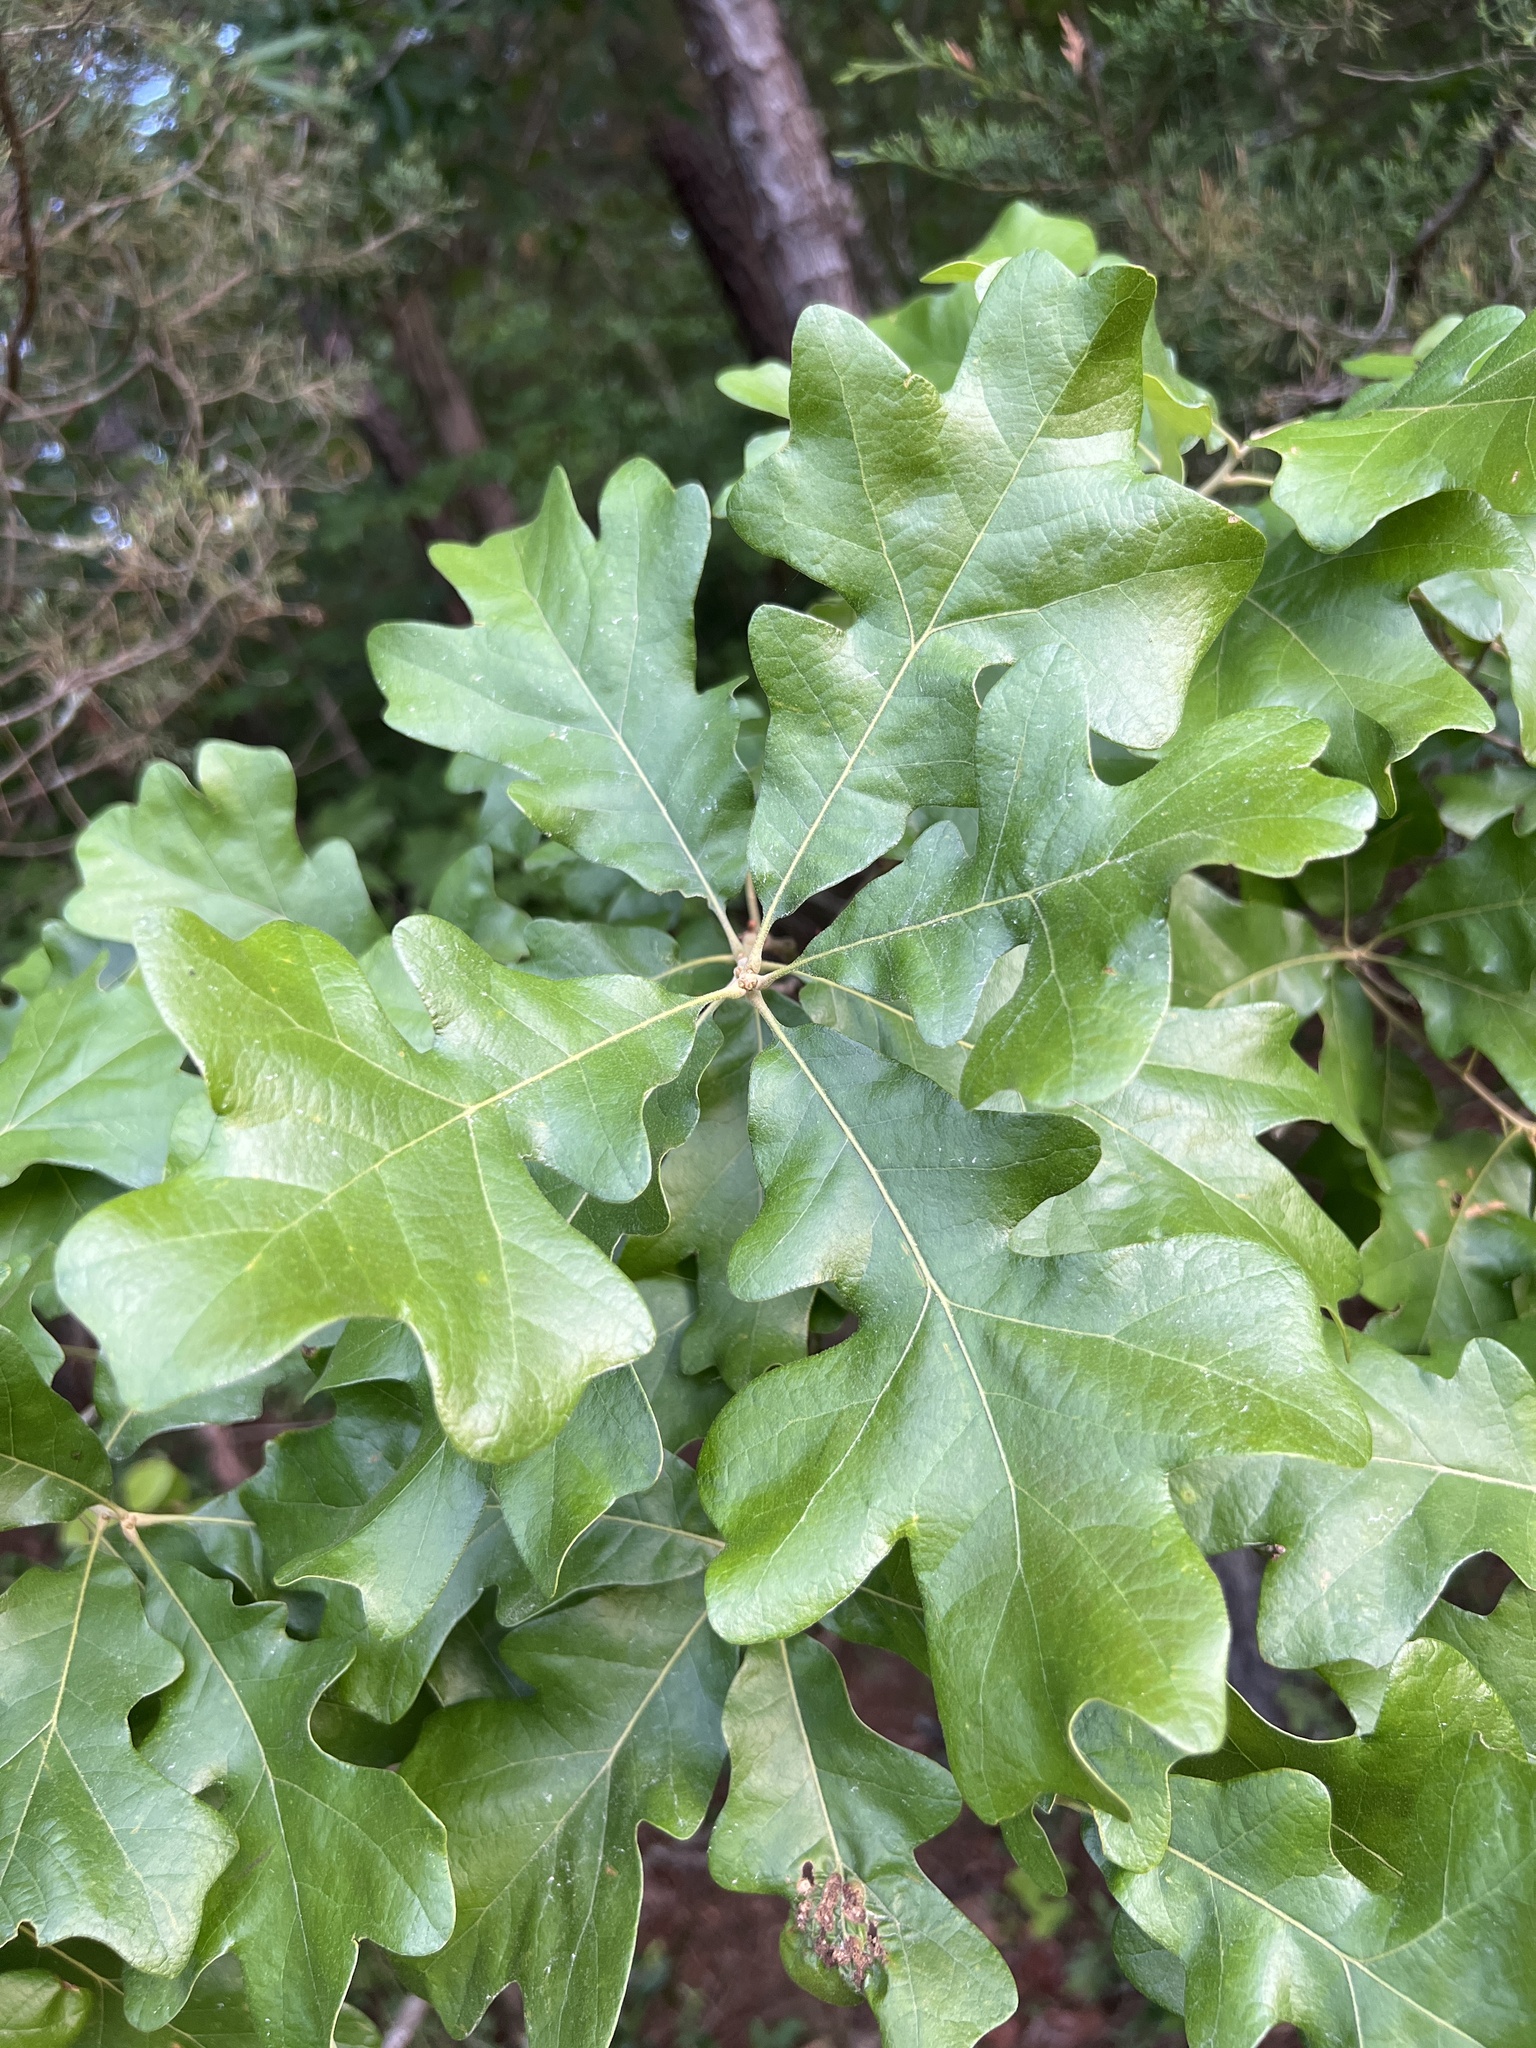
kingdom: Plantae
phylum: Tracheophyta
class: Magnoliopsida
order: Fagales
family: Fagaceae
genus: Quercus
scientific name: Quercus stellata
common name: Post oak
